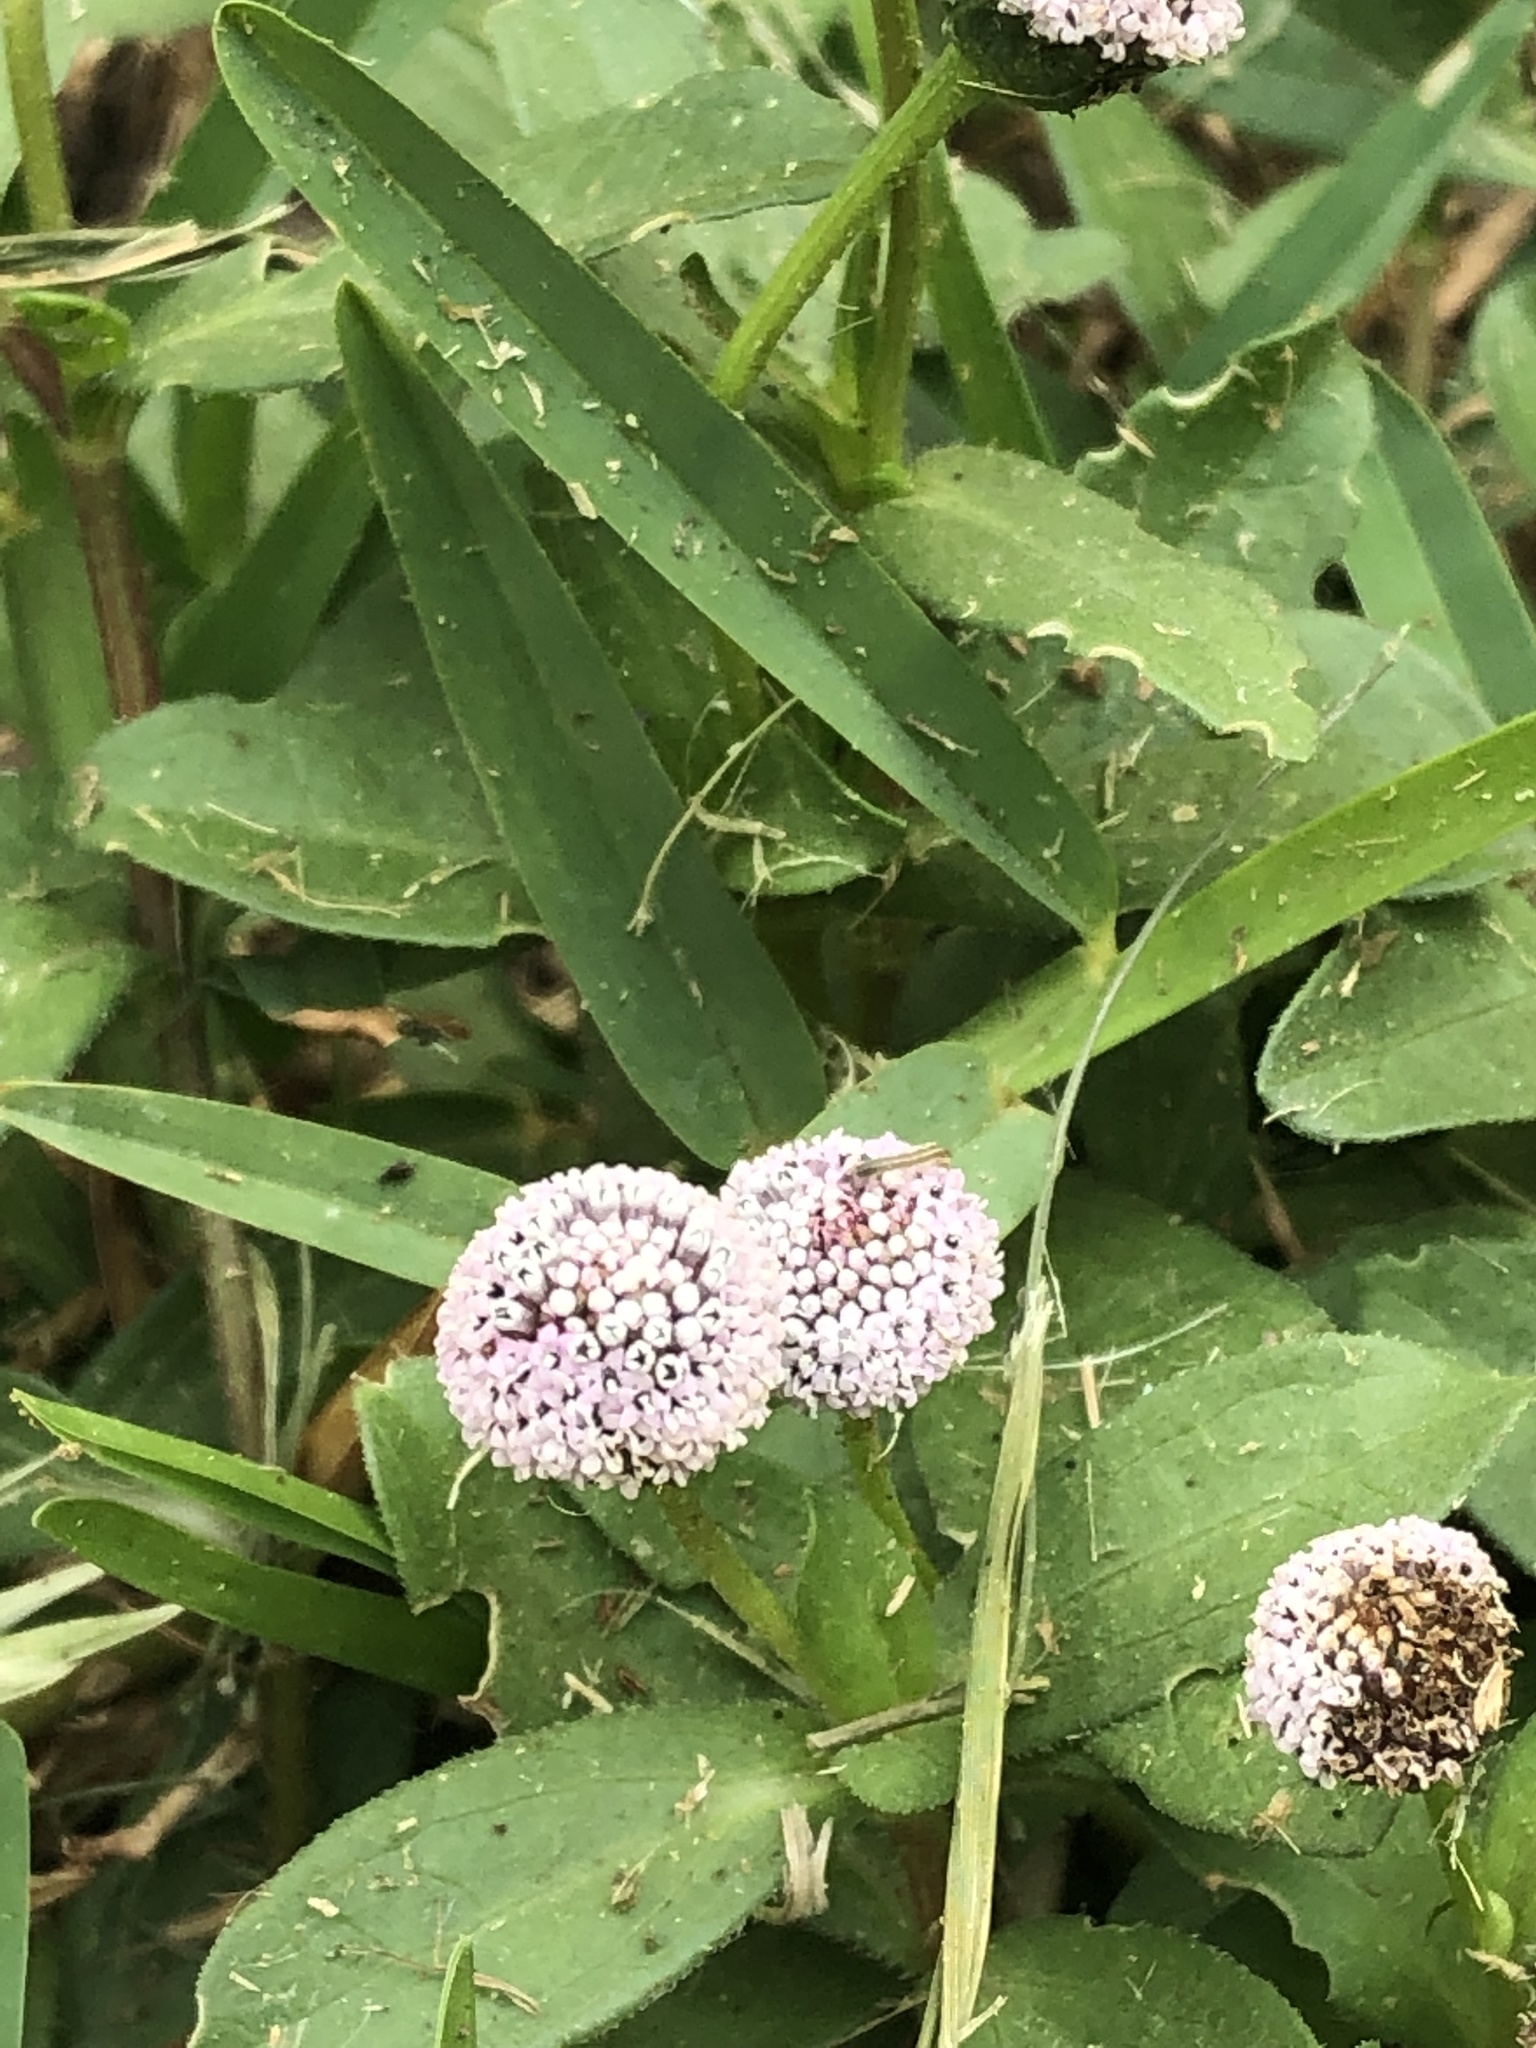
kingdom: Plantae
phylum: Tracheophyta
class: Magnoliopsida
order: Asterales
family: Asteraceae
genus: Spilanthes
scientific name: Spilanthes leiocarpa
